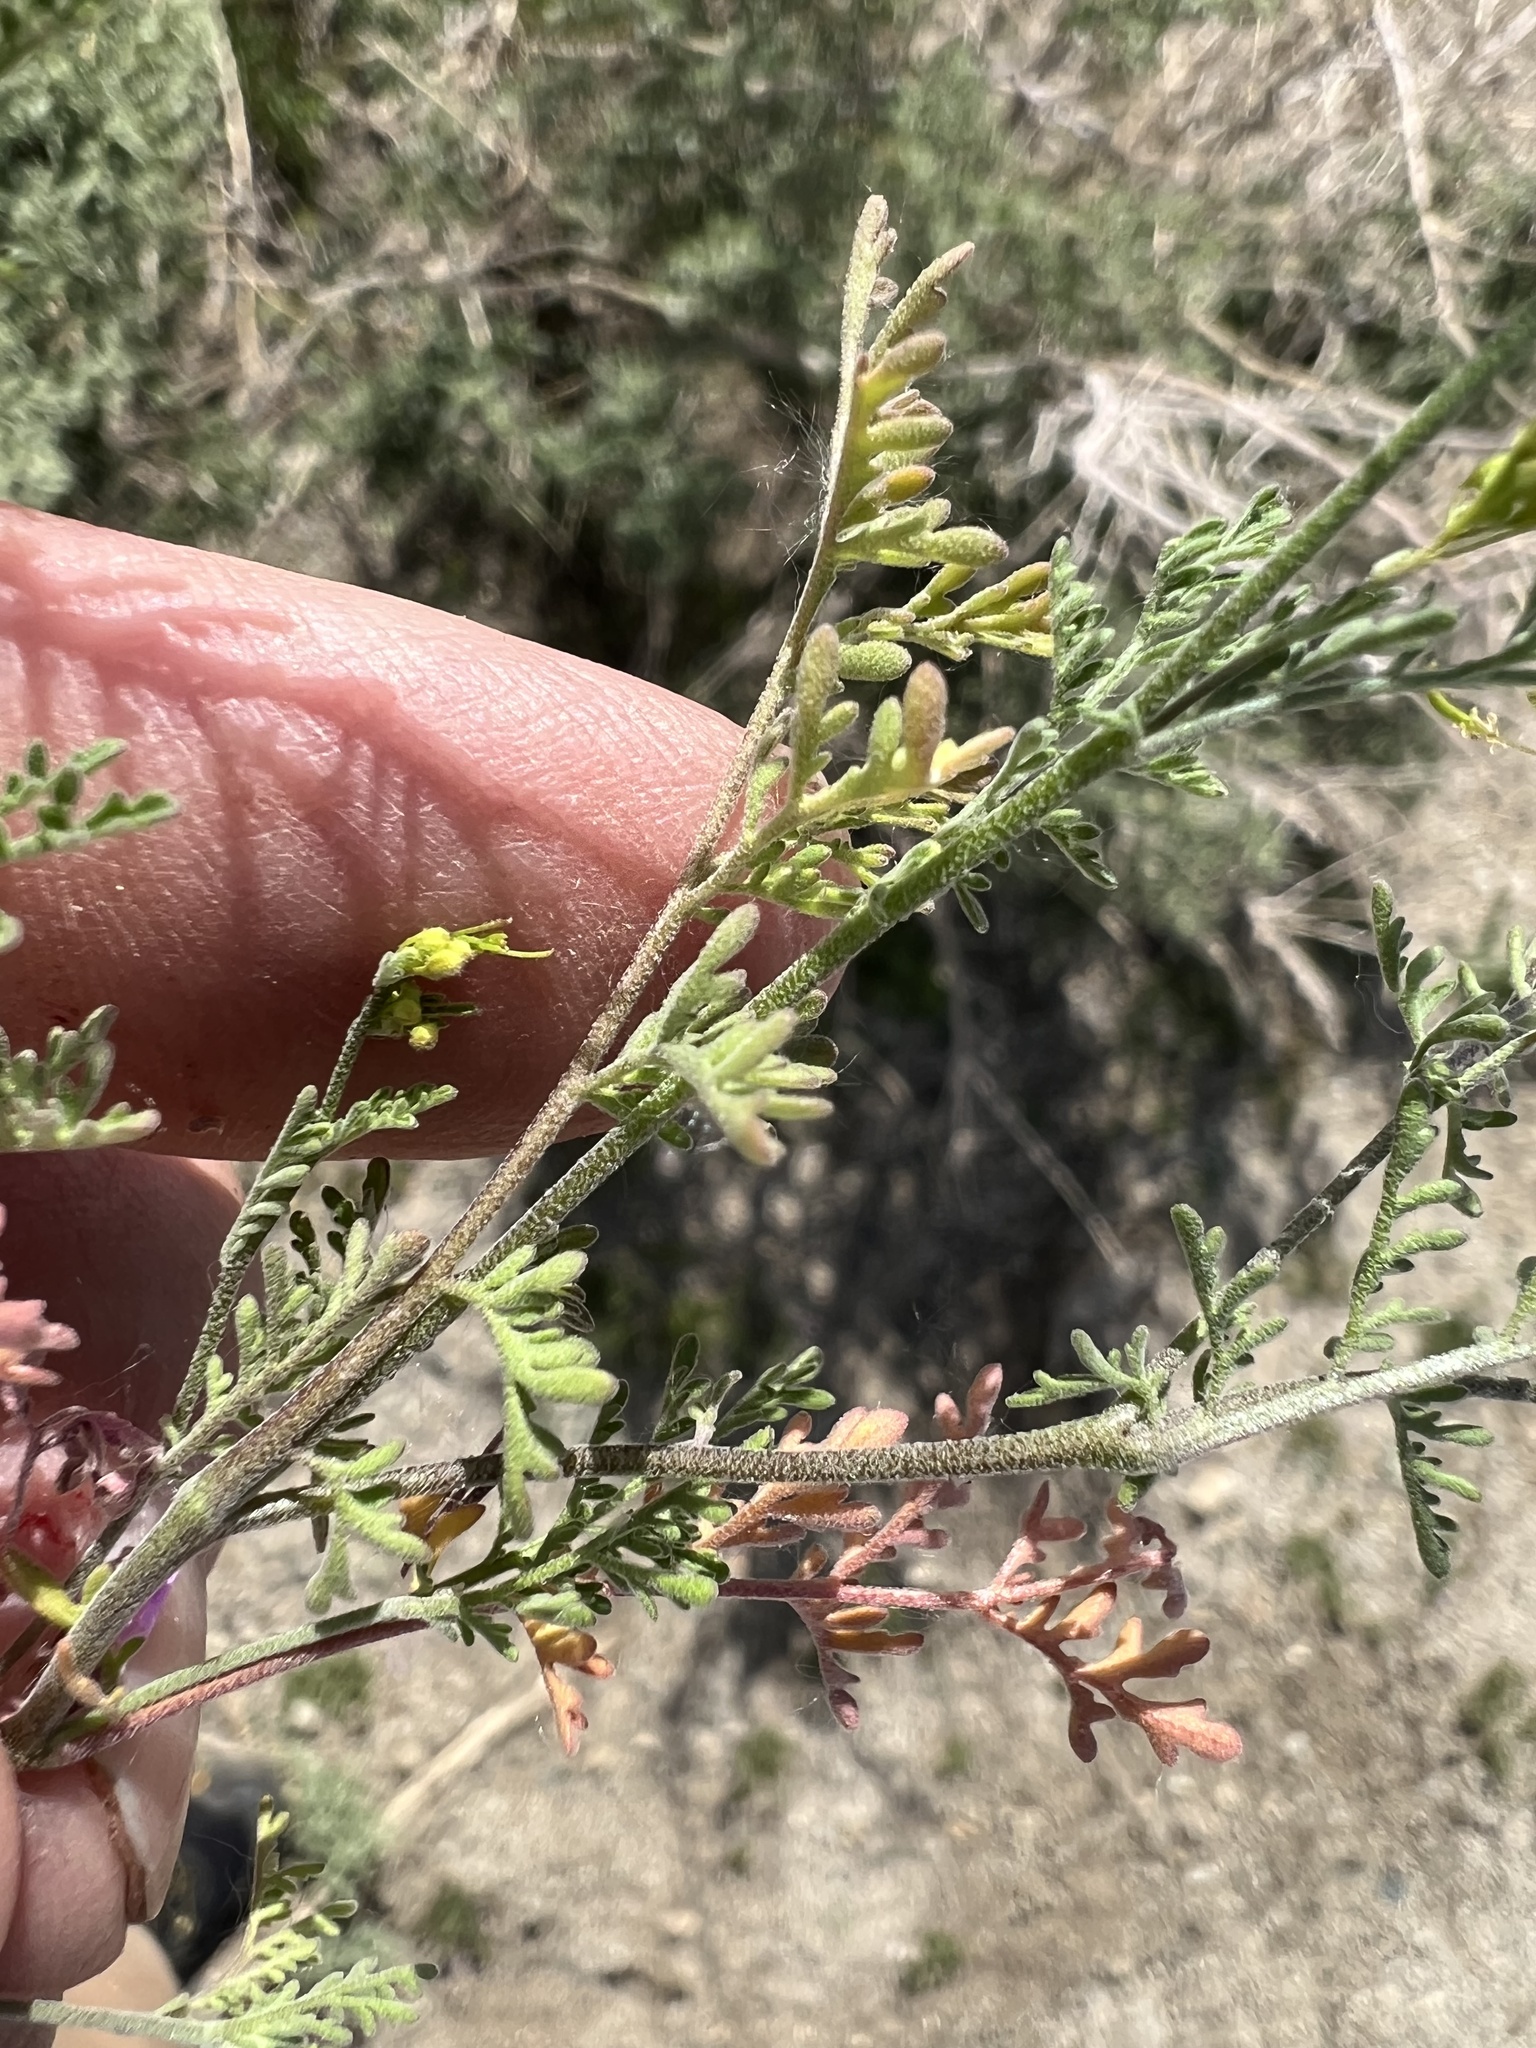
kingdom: Plantae
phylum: Tracheophyta
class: Magnoliopsida
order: Brassicales
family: Brassicaceae
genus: Descurainia
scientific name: Descurainia pinnata
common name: Western tansy mustard
